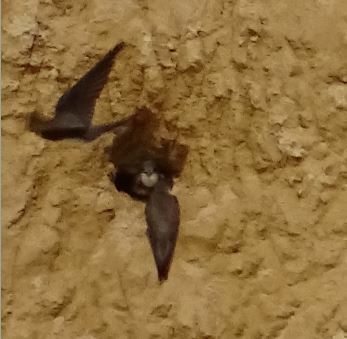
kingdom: Animalia
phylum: Chordata
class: Aves
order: Passeriformes
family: Hirundinidae
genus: Riparia
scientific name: Riparia riparia
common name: Sand martin
